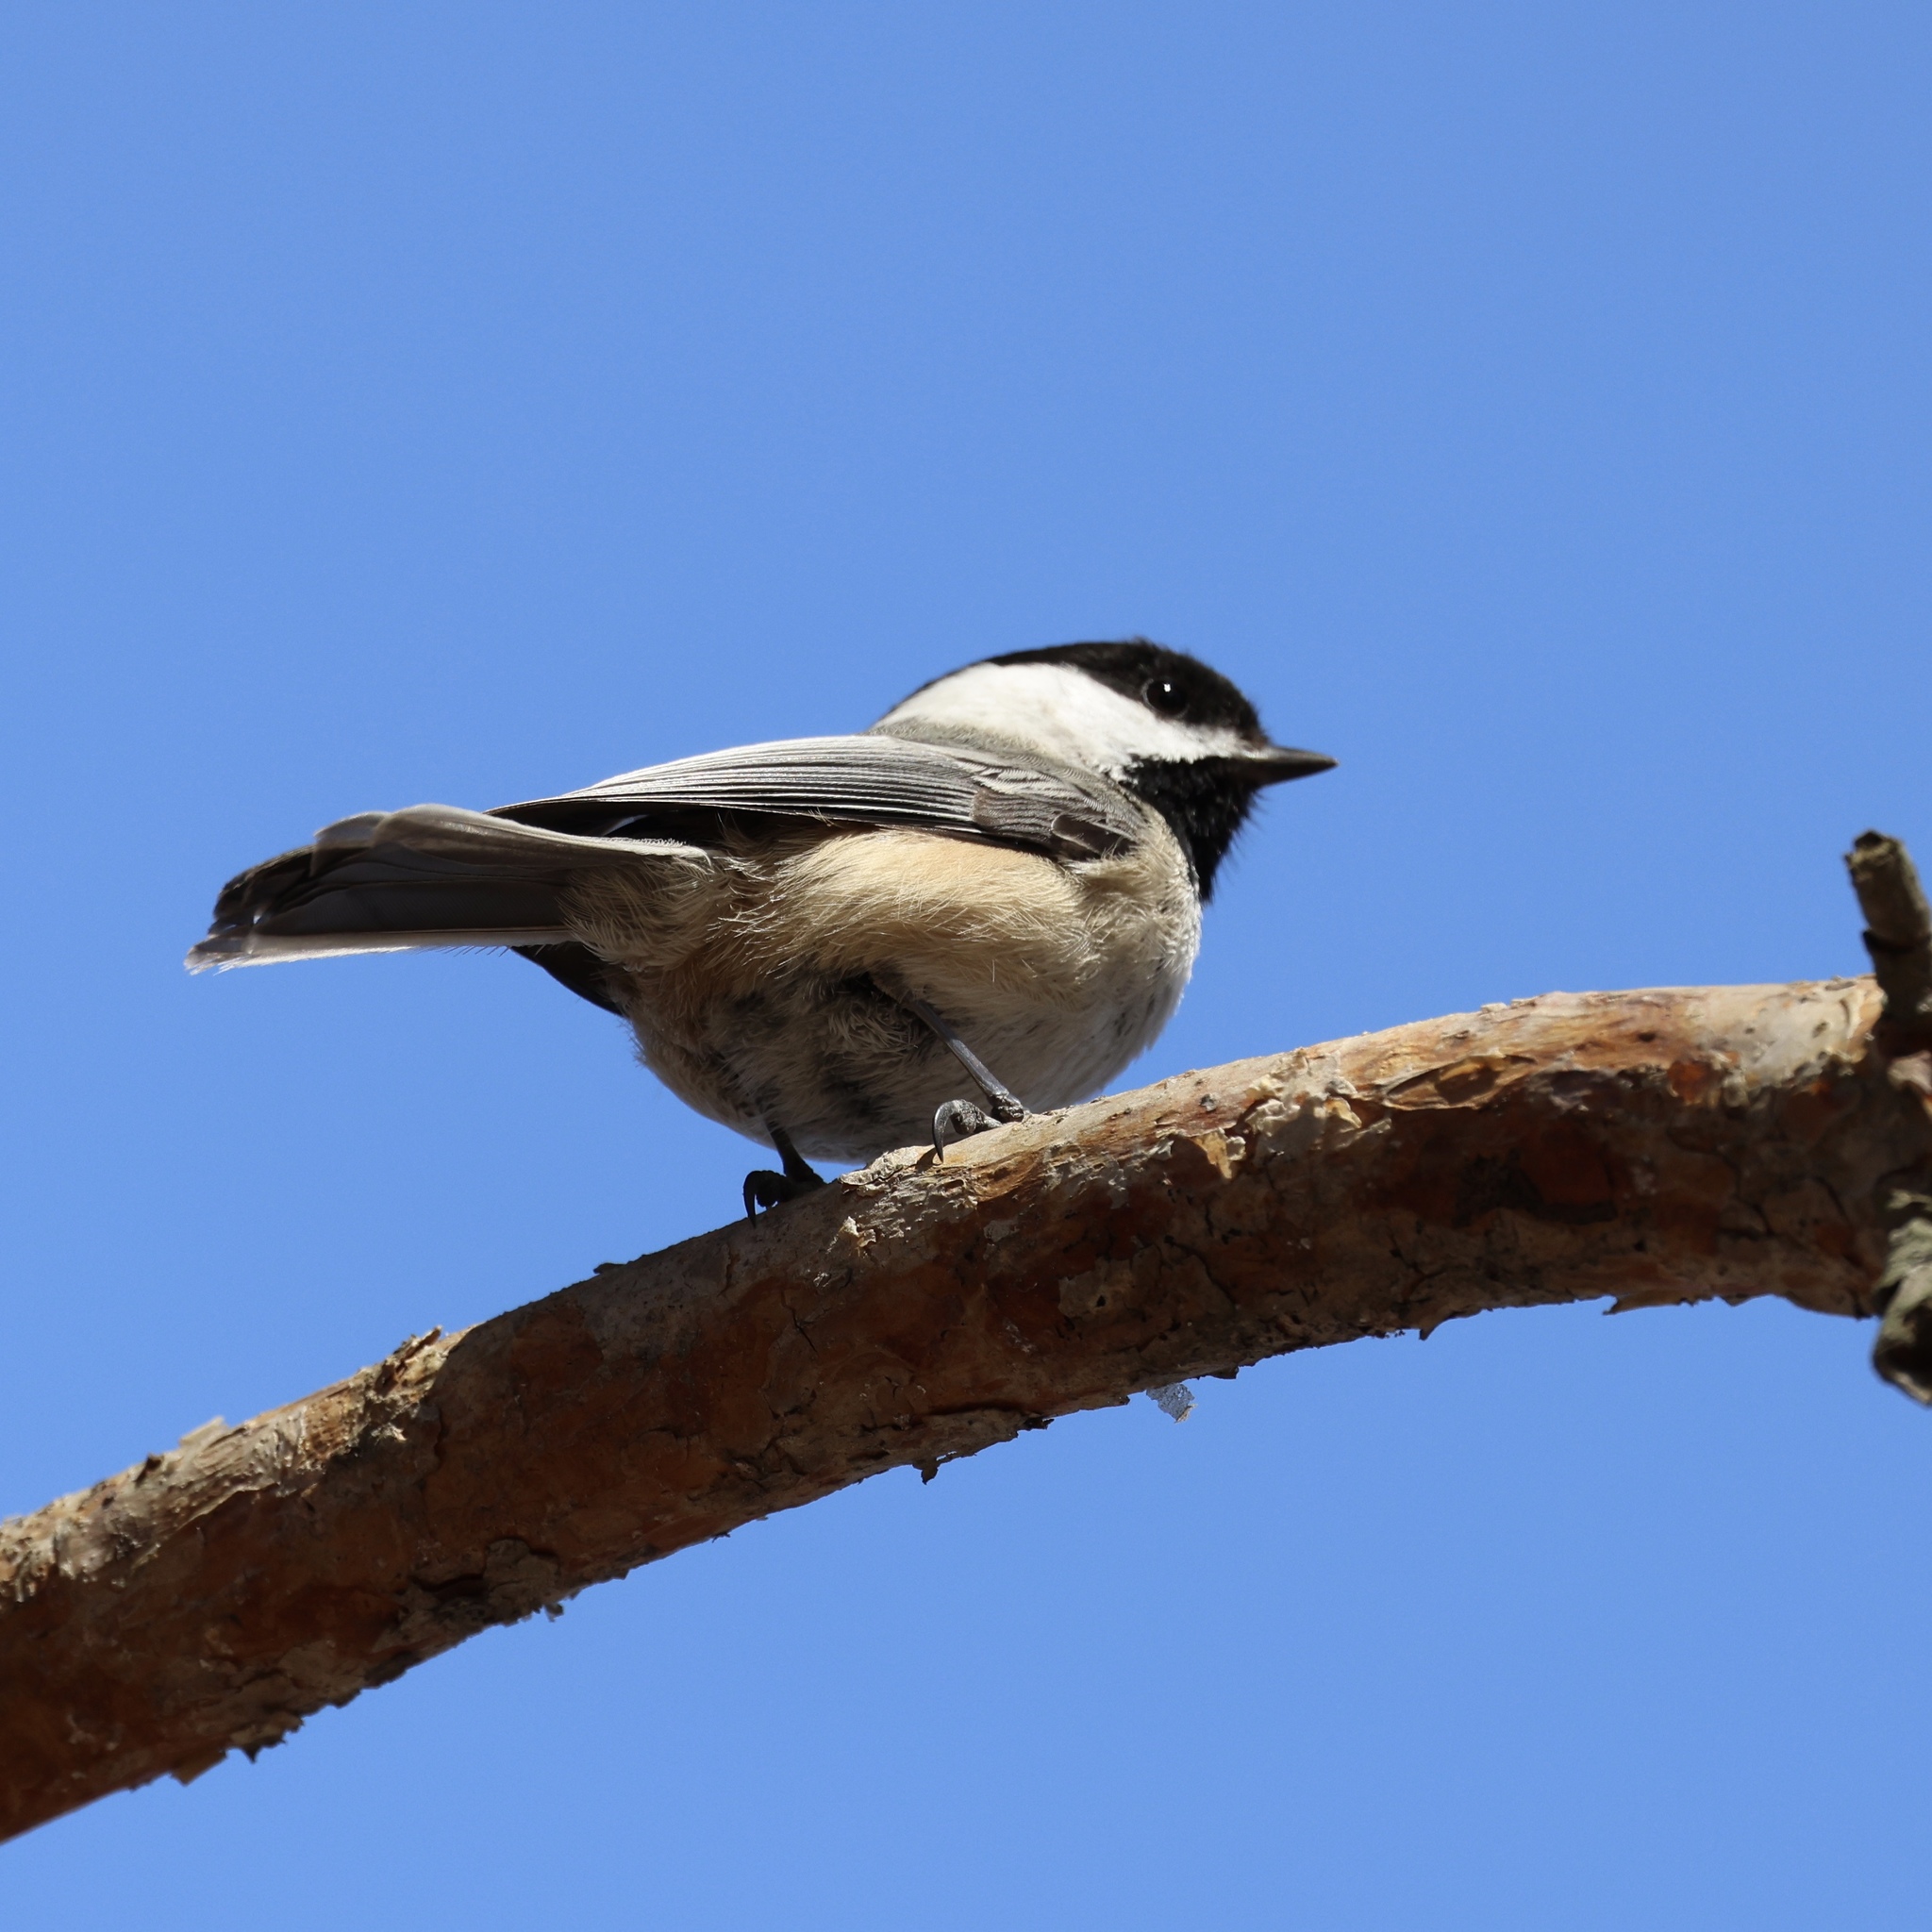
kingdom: Animalia
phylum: Chordata
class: Aves
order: Passeriformes
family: Paridae
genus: Poecile
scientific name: Poecile atricapillus
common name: Black-capped chickadee
